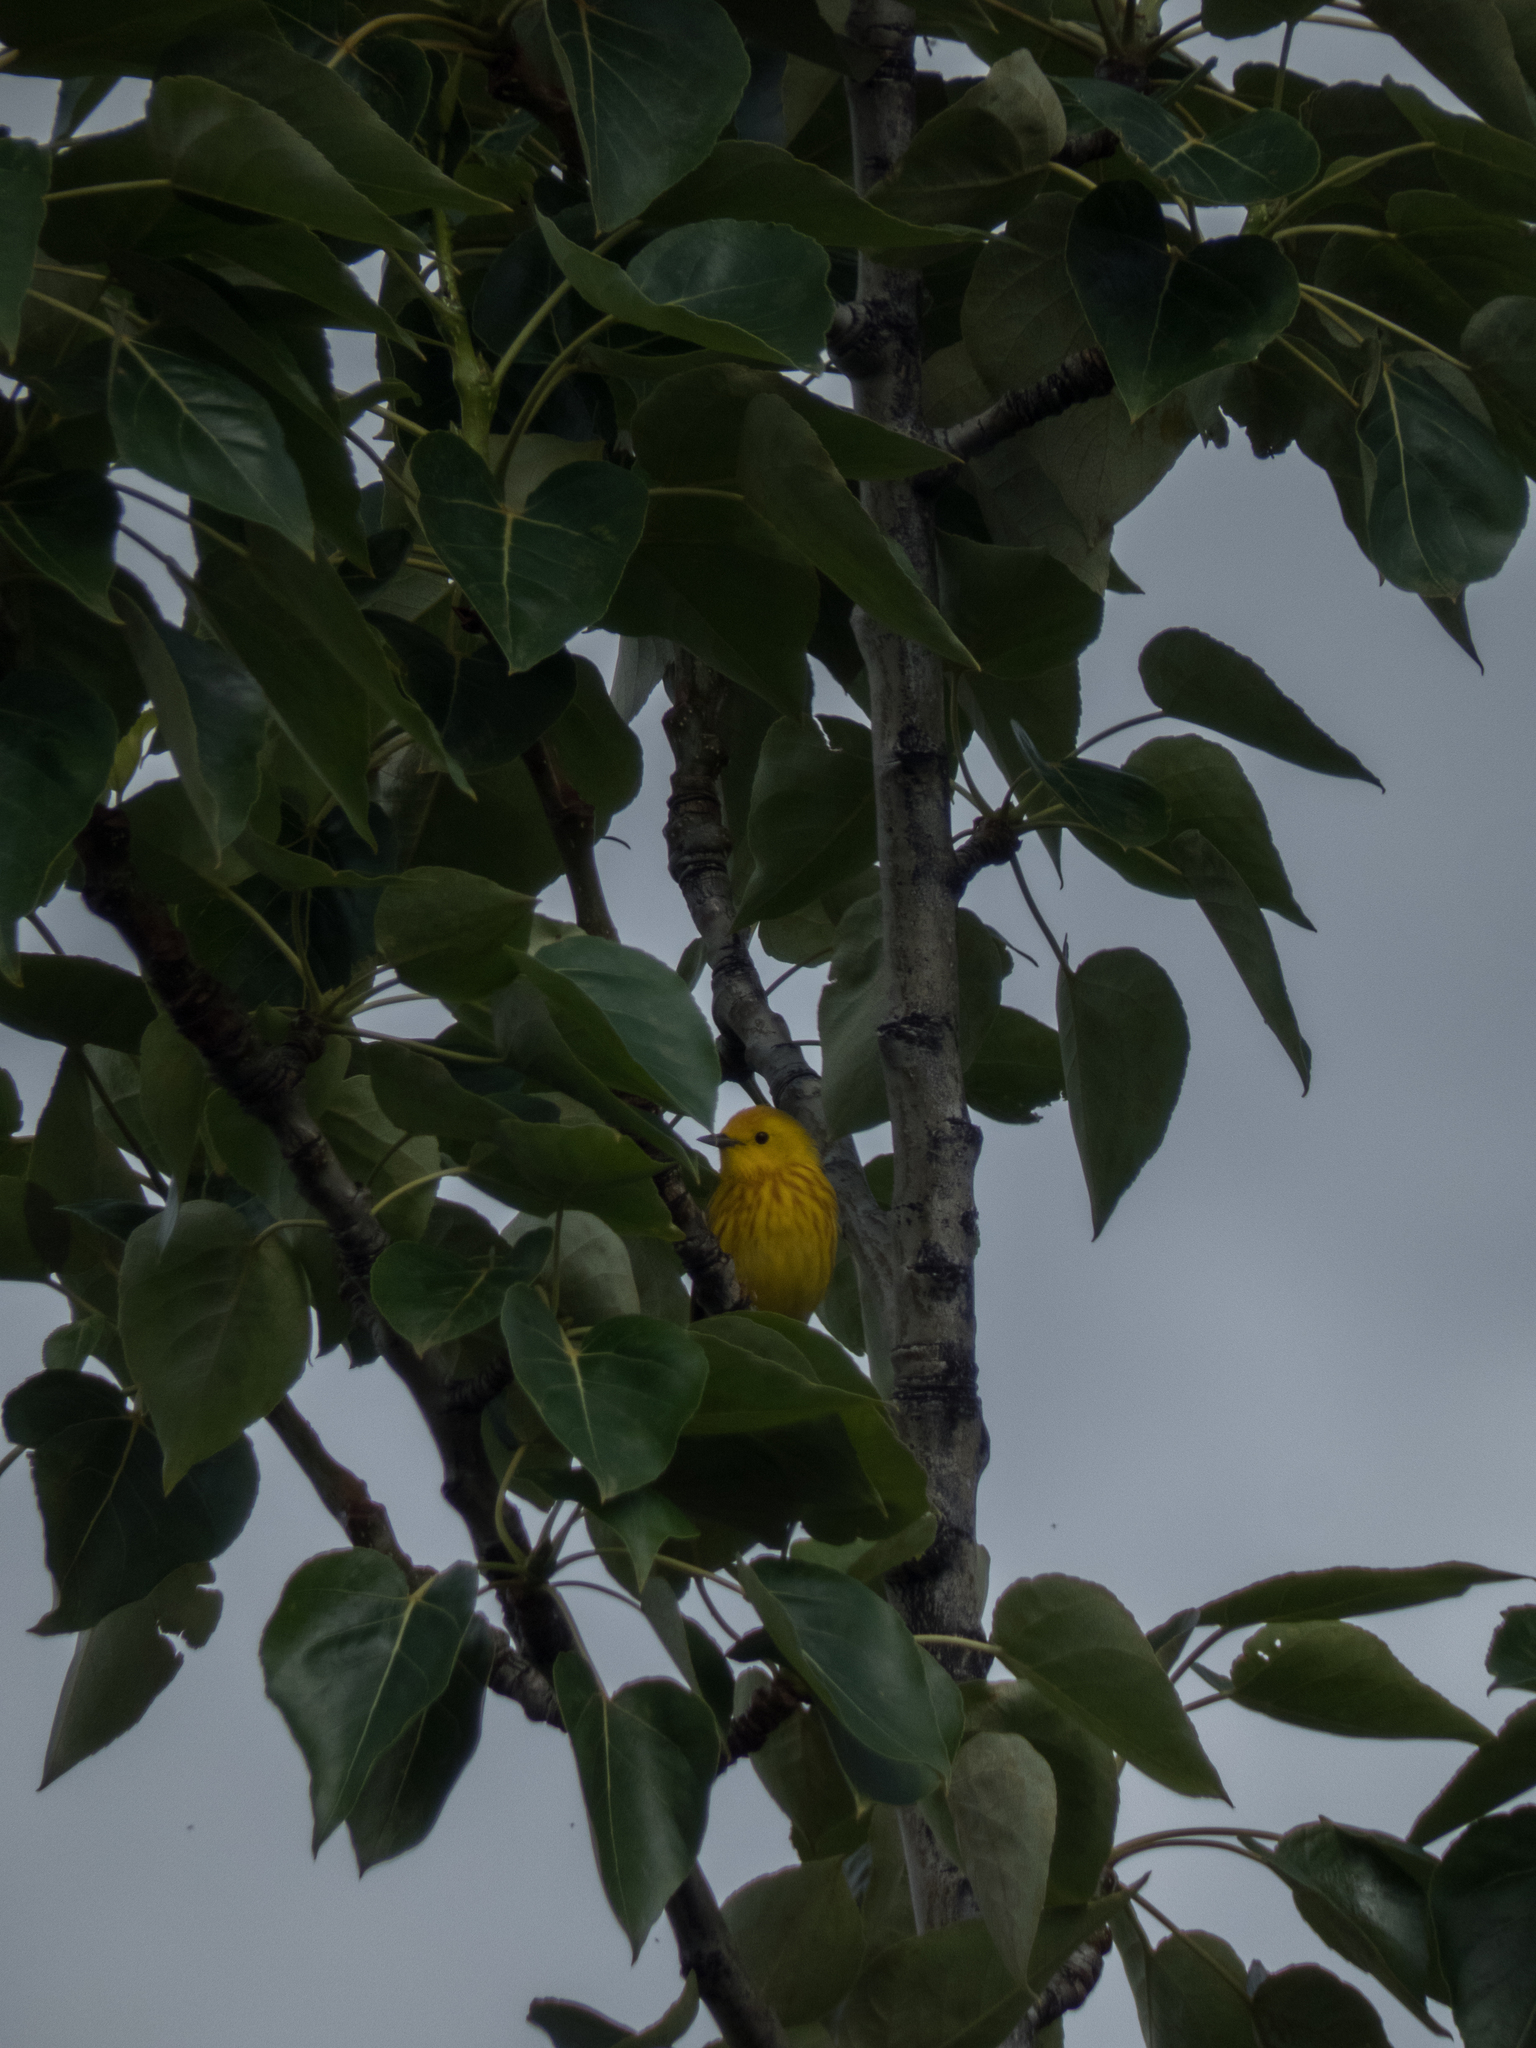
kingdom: Animalia
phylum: Chordata
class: Aves
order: Passeriformes
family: Parulidae
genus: Setophaga
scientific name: Setophaga petechia
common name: Yellow warbler
